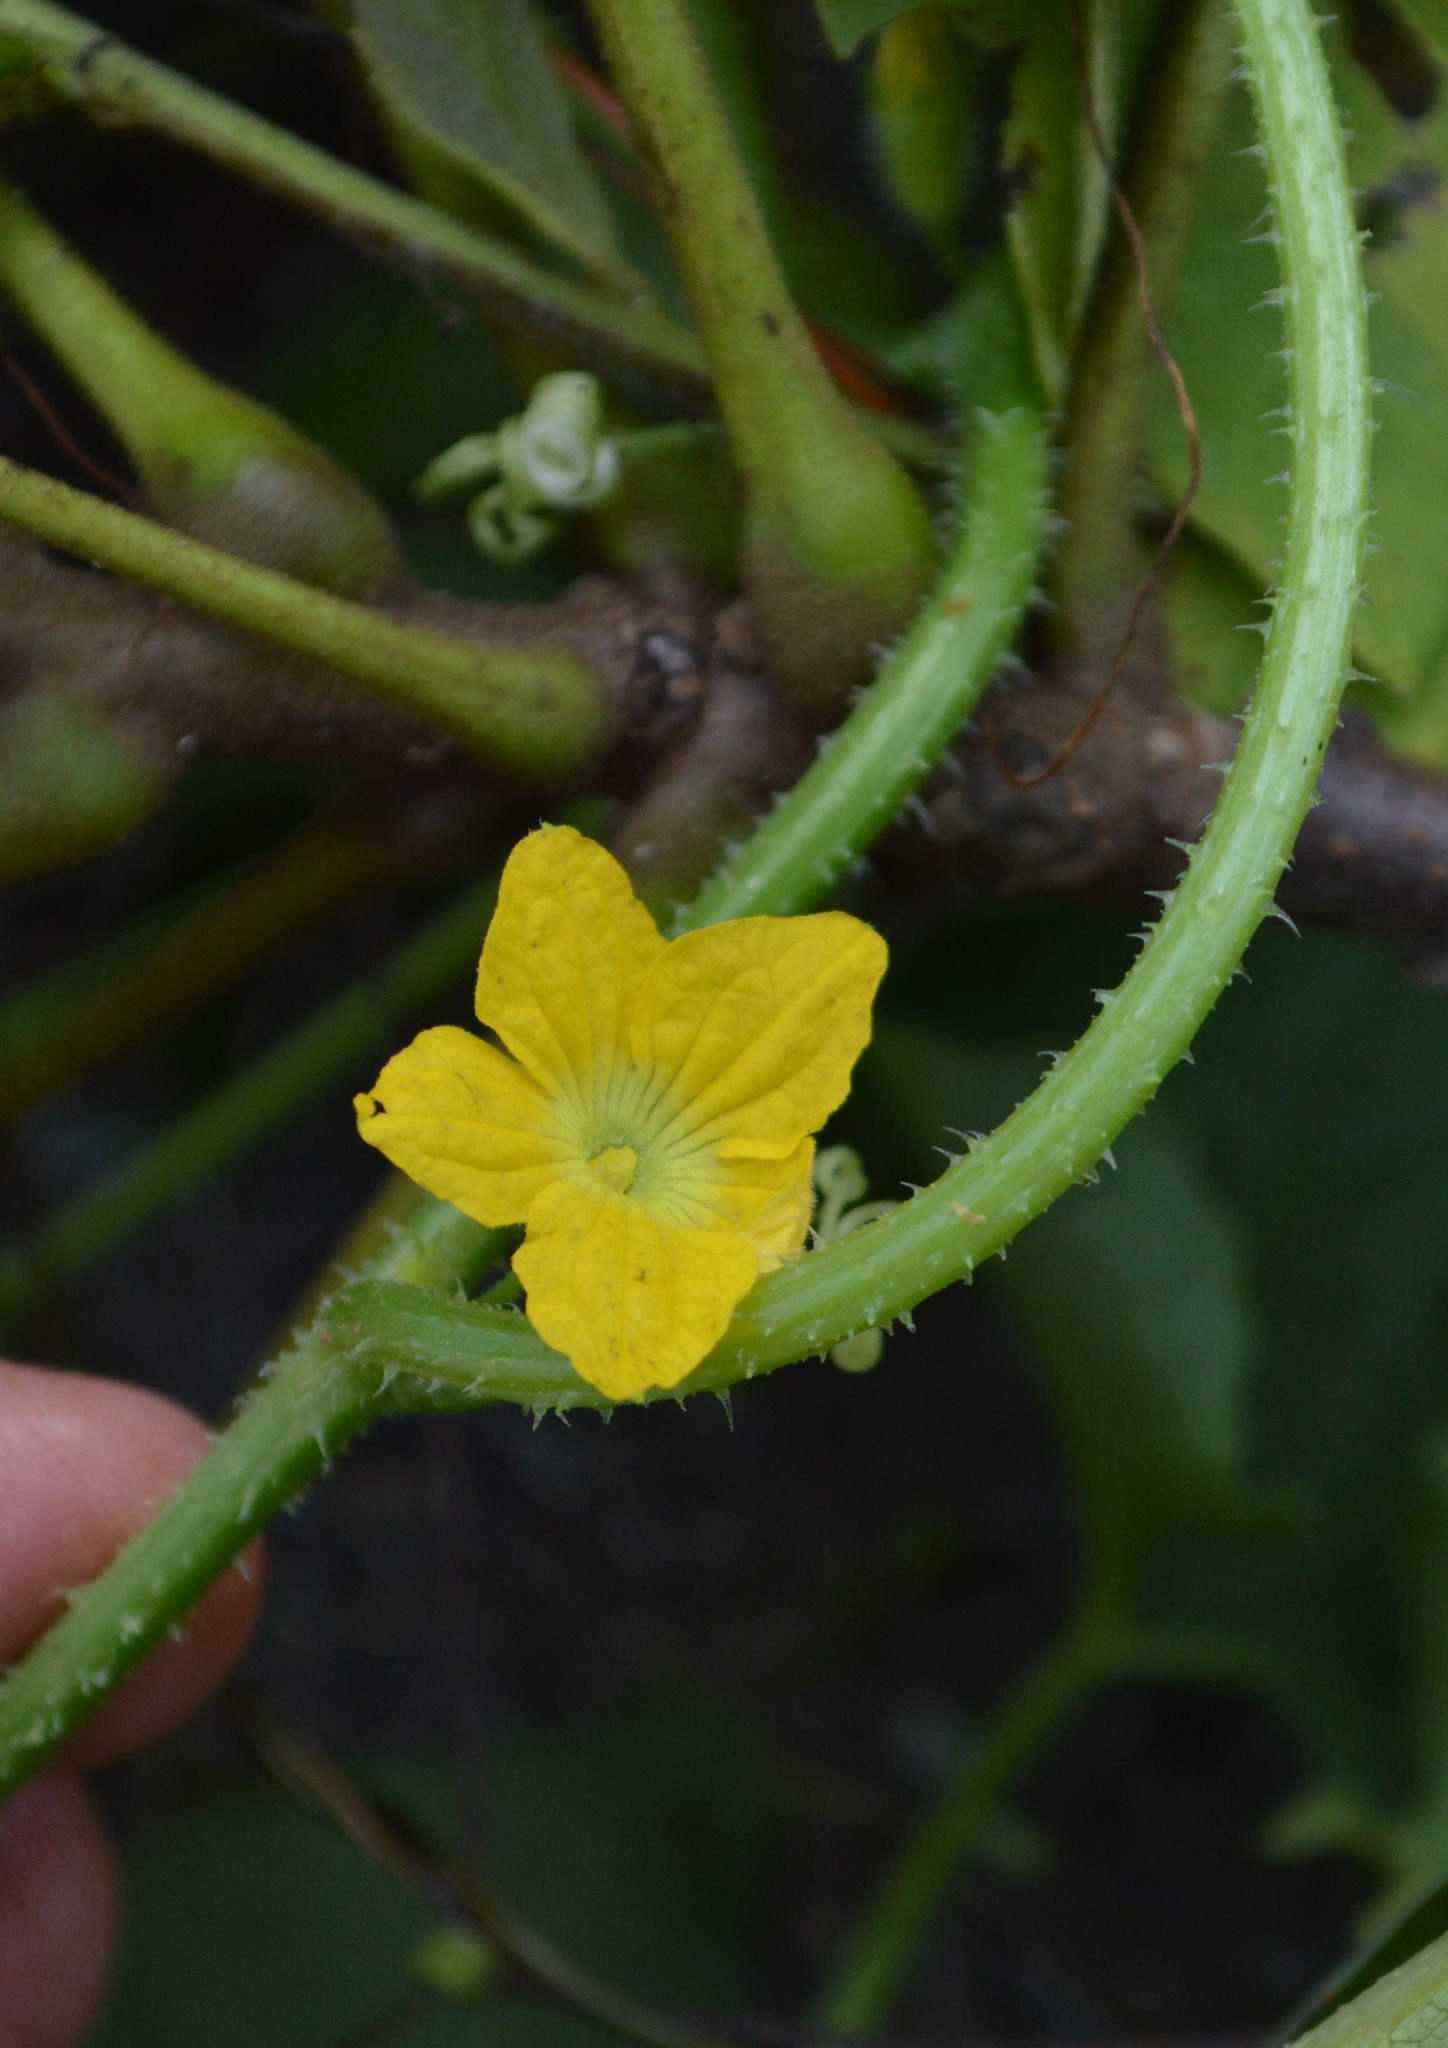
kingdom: Plantae
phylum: Tracheophyta
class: Magnoliopsida
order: Cucurbitales
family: Cucurbitaceae
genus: Cucumis
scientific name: Cucumis melo
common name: Melon
